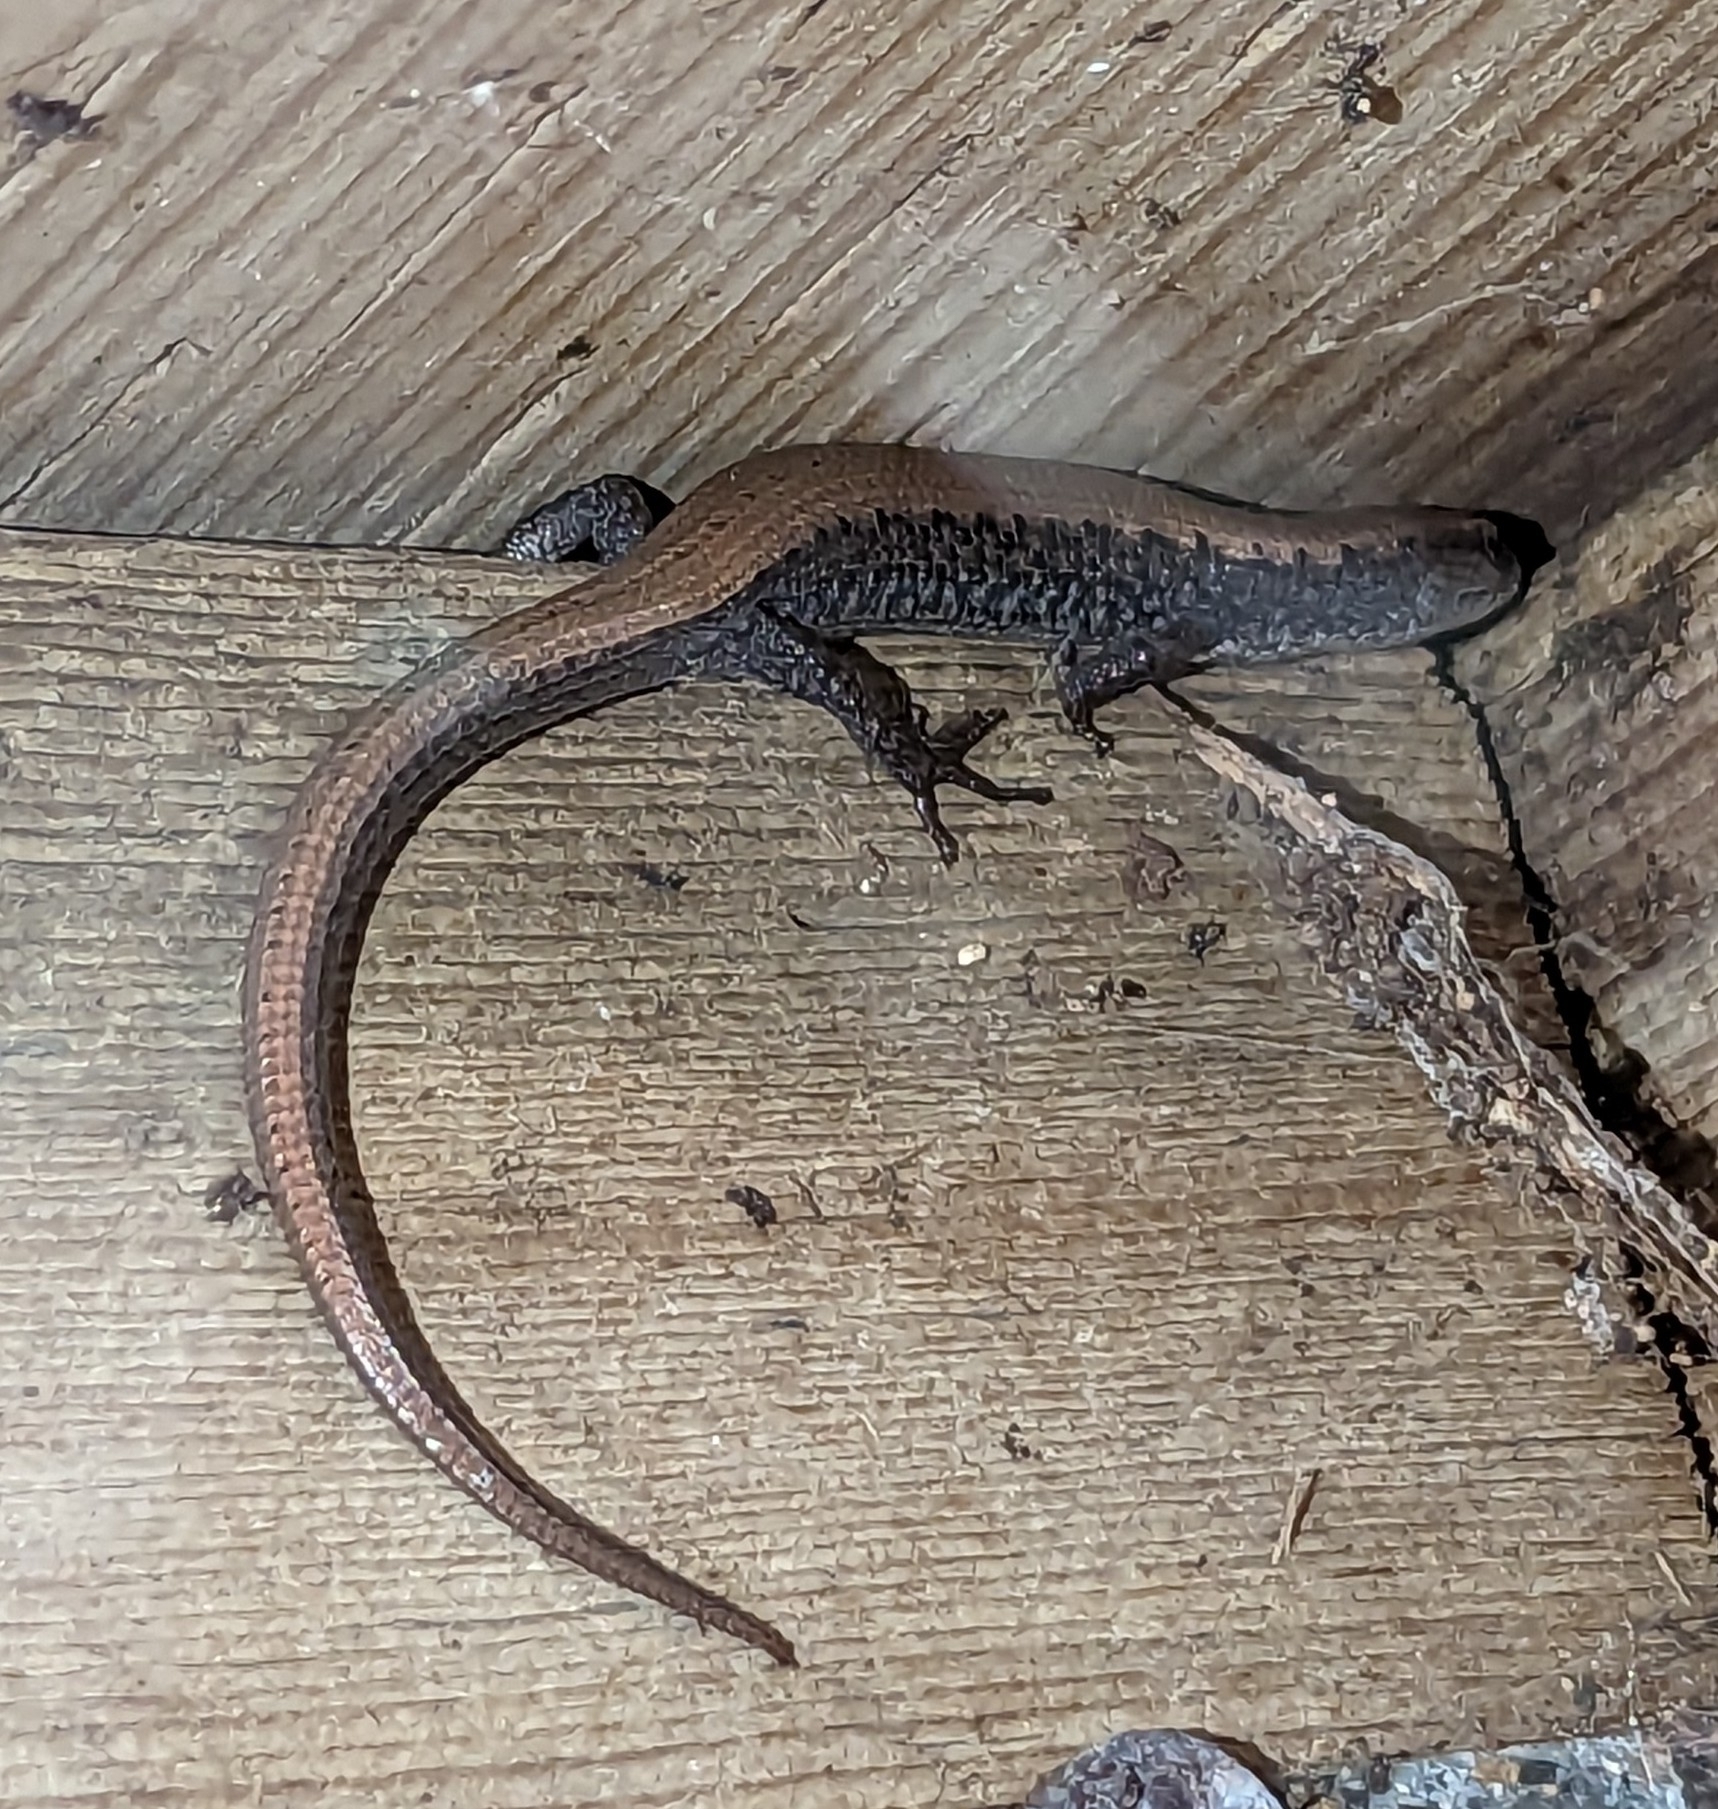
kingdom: Animalia
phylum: Chordata
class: Squamata
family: Anguidae
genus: Elgaria
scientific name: Elgaria coerulea
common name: Northern alligator lizard
